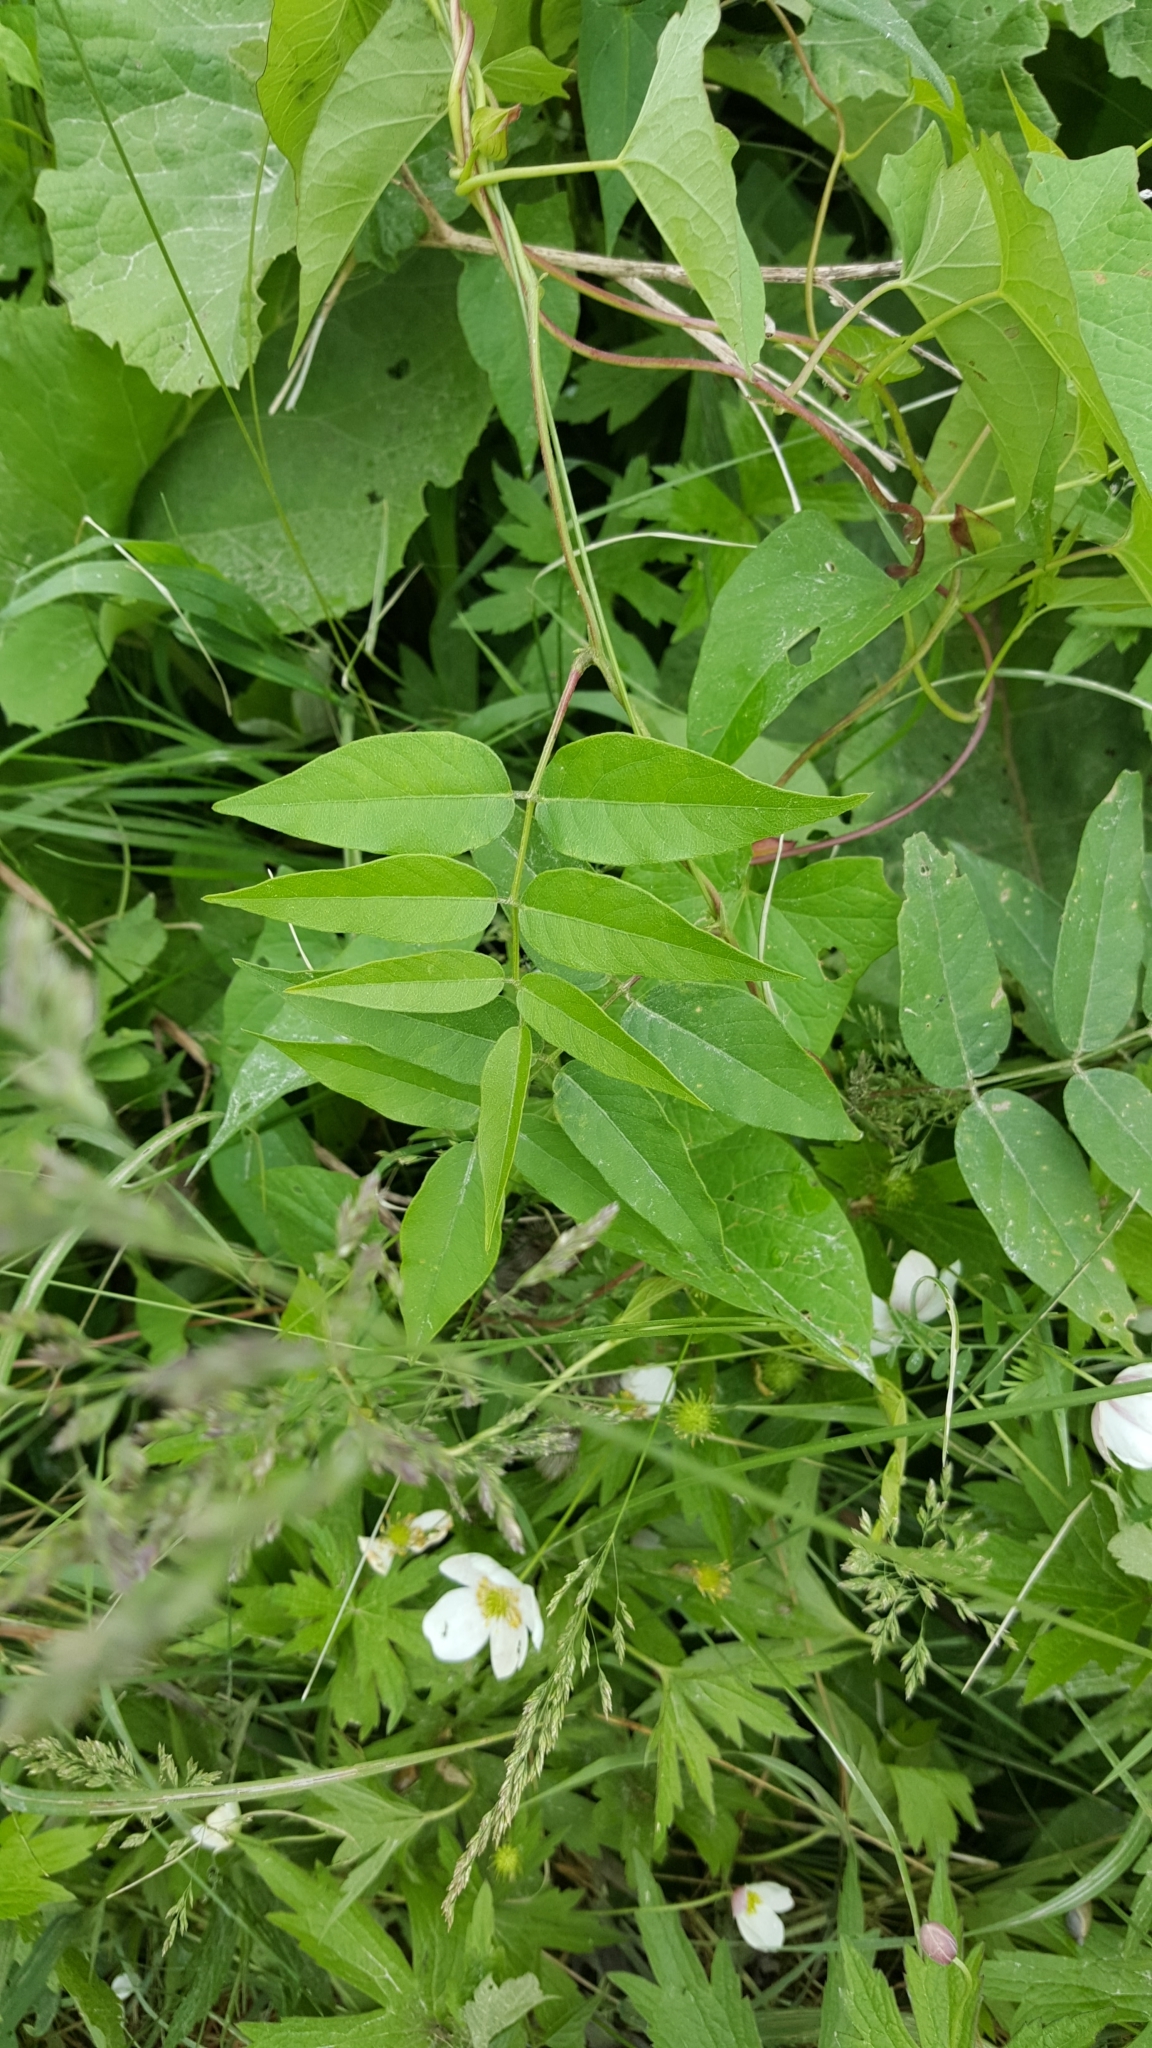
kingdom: Plantae
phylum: Tracheophyta
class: Magnoliopsida
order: Fabales
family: Fabaceae
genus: Apios
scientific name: Apios americana
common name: American potato-bean
